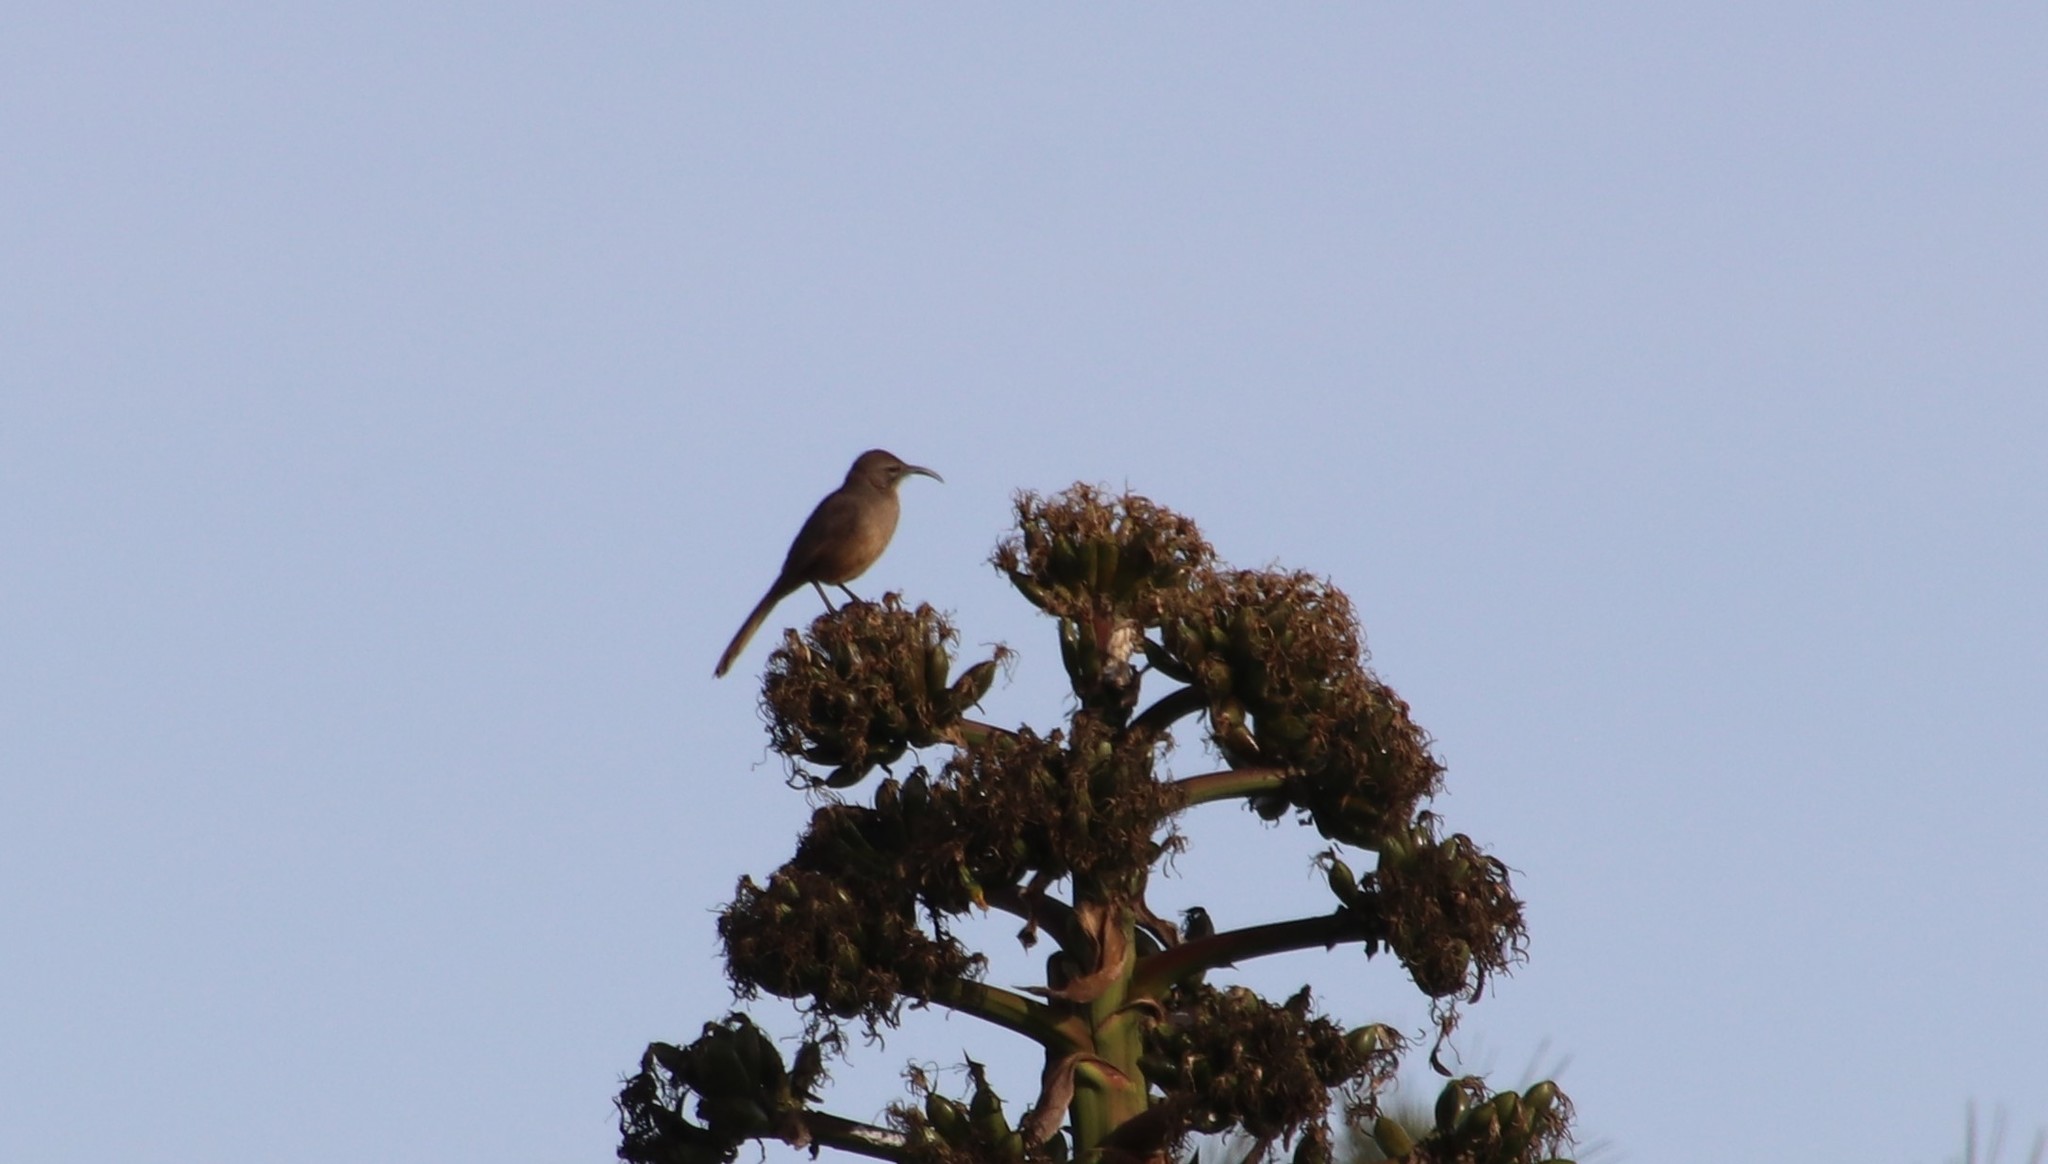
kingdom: Animalia
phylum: Chordata
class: Aves
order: Passeriformes
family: Mimidae
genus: Toxostoma
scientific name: Toxostoma redivivum
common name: California thrasher
